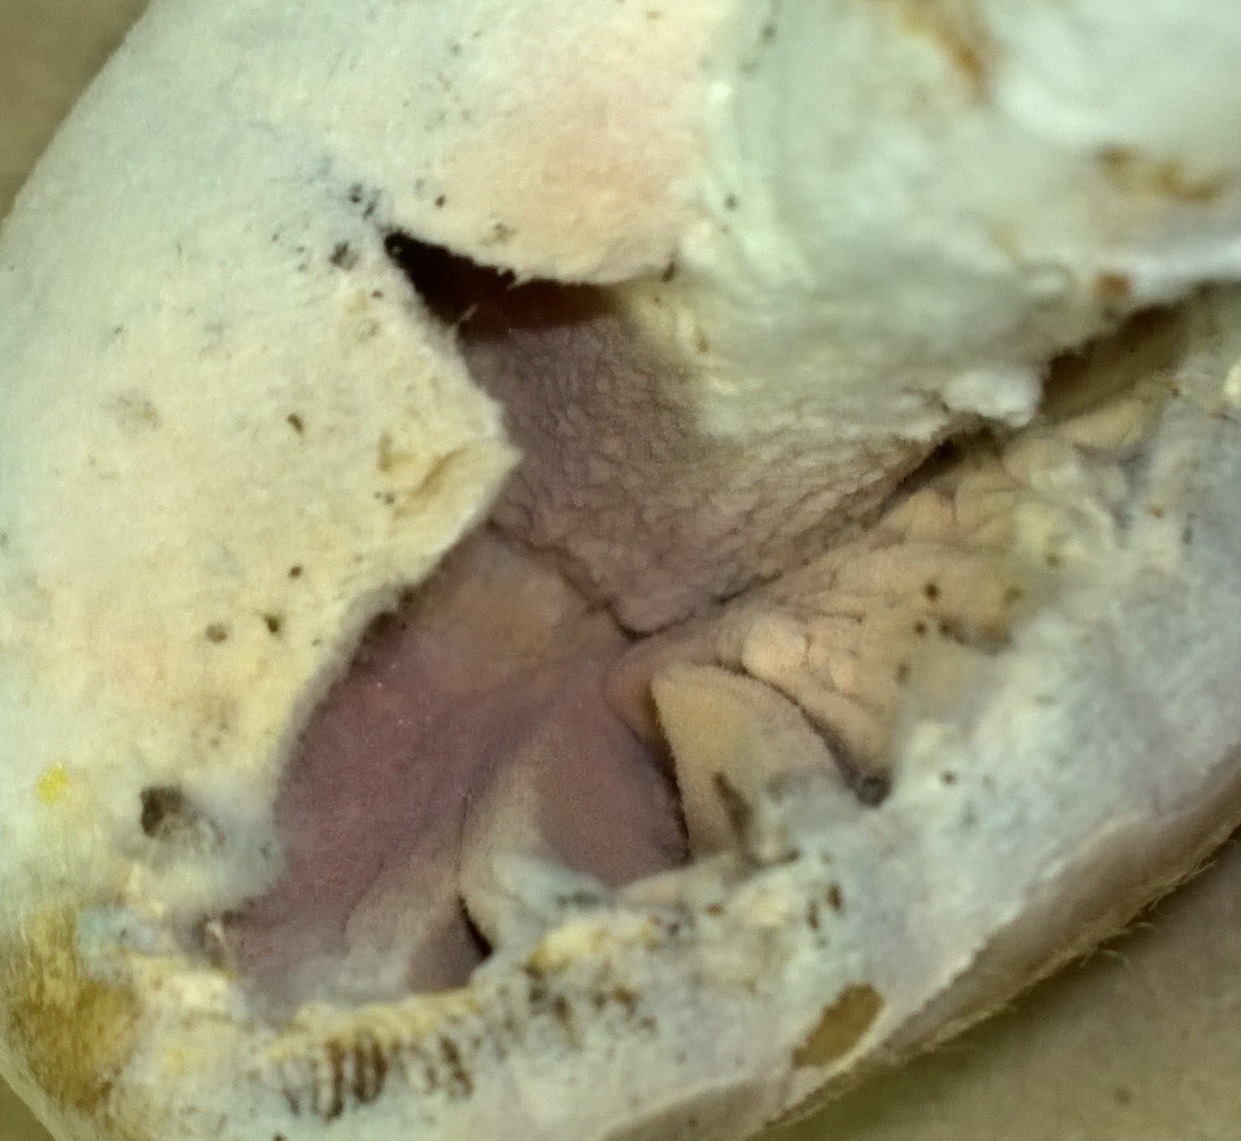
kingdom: Fungi
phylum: Ascomycota
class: Sordariomycetes
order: Hypocreales
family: Hypocreaceae
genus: Mycogone
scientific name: Mycogone rosea
